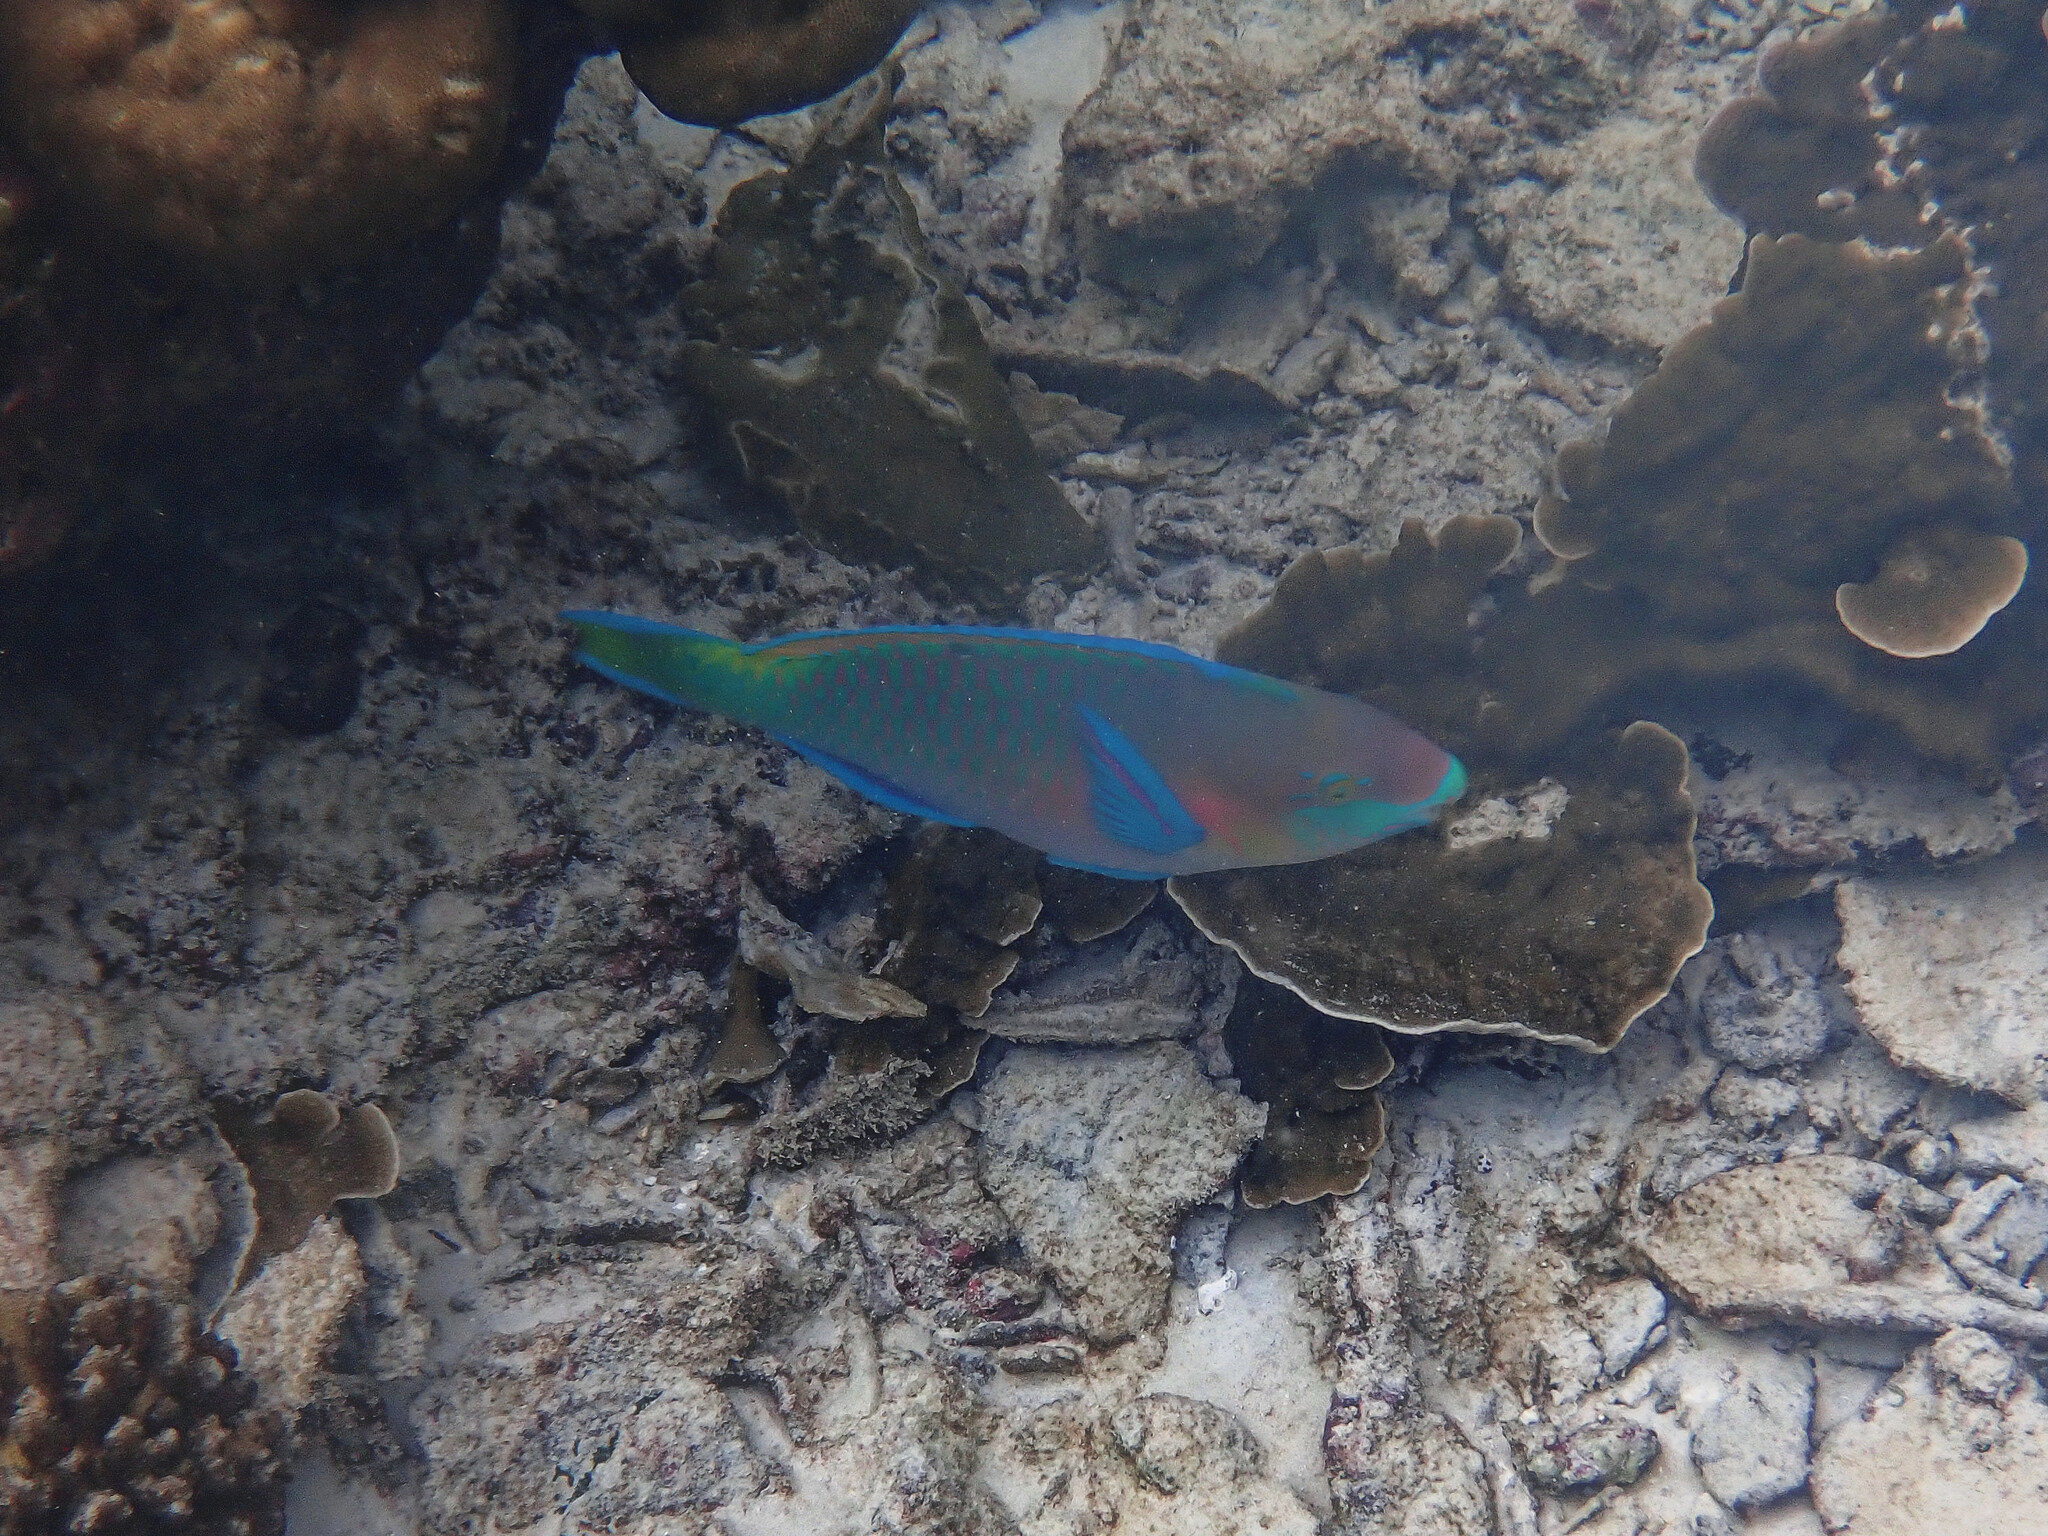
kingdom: Animalia
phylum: Chordata
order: Perciformes
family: Scaridae
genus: Scarus
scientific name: Scarus quoyi
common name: Quoy's parrotfish
